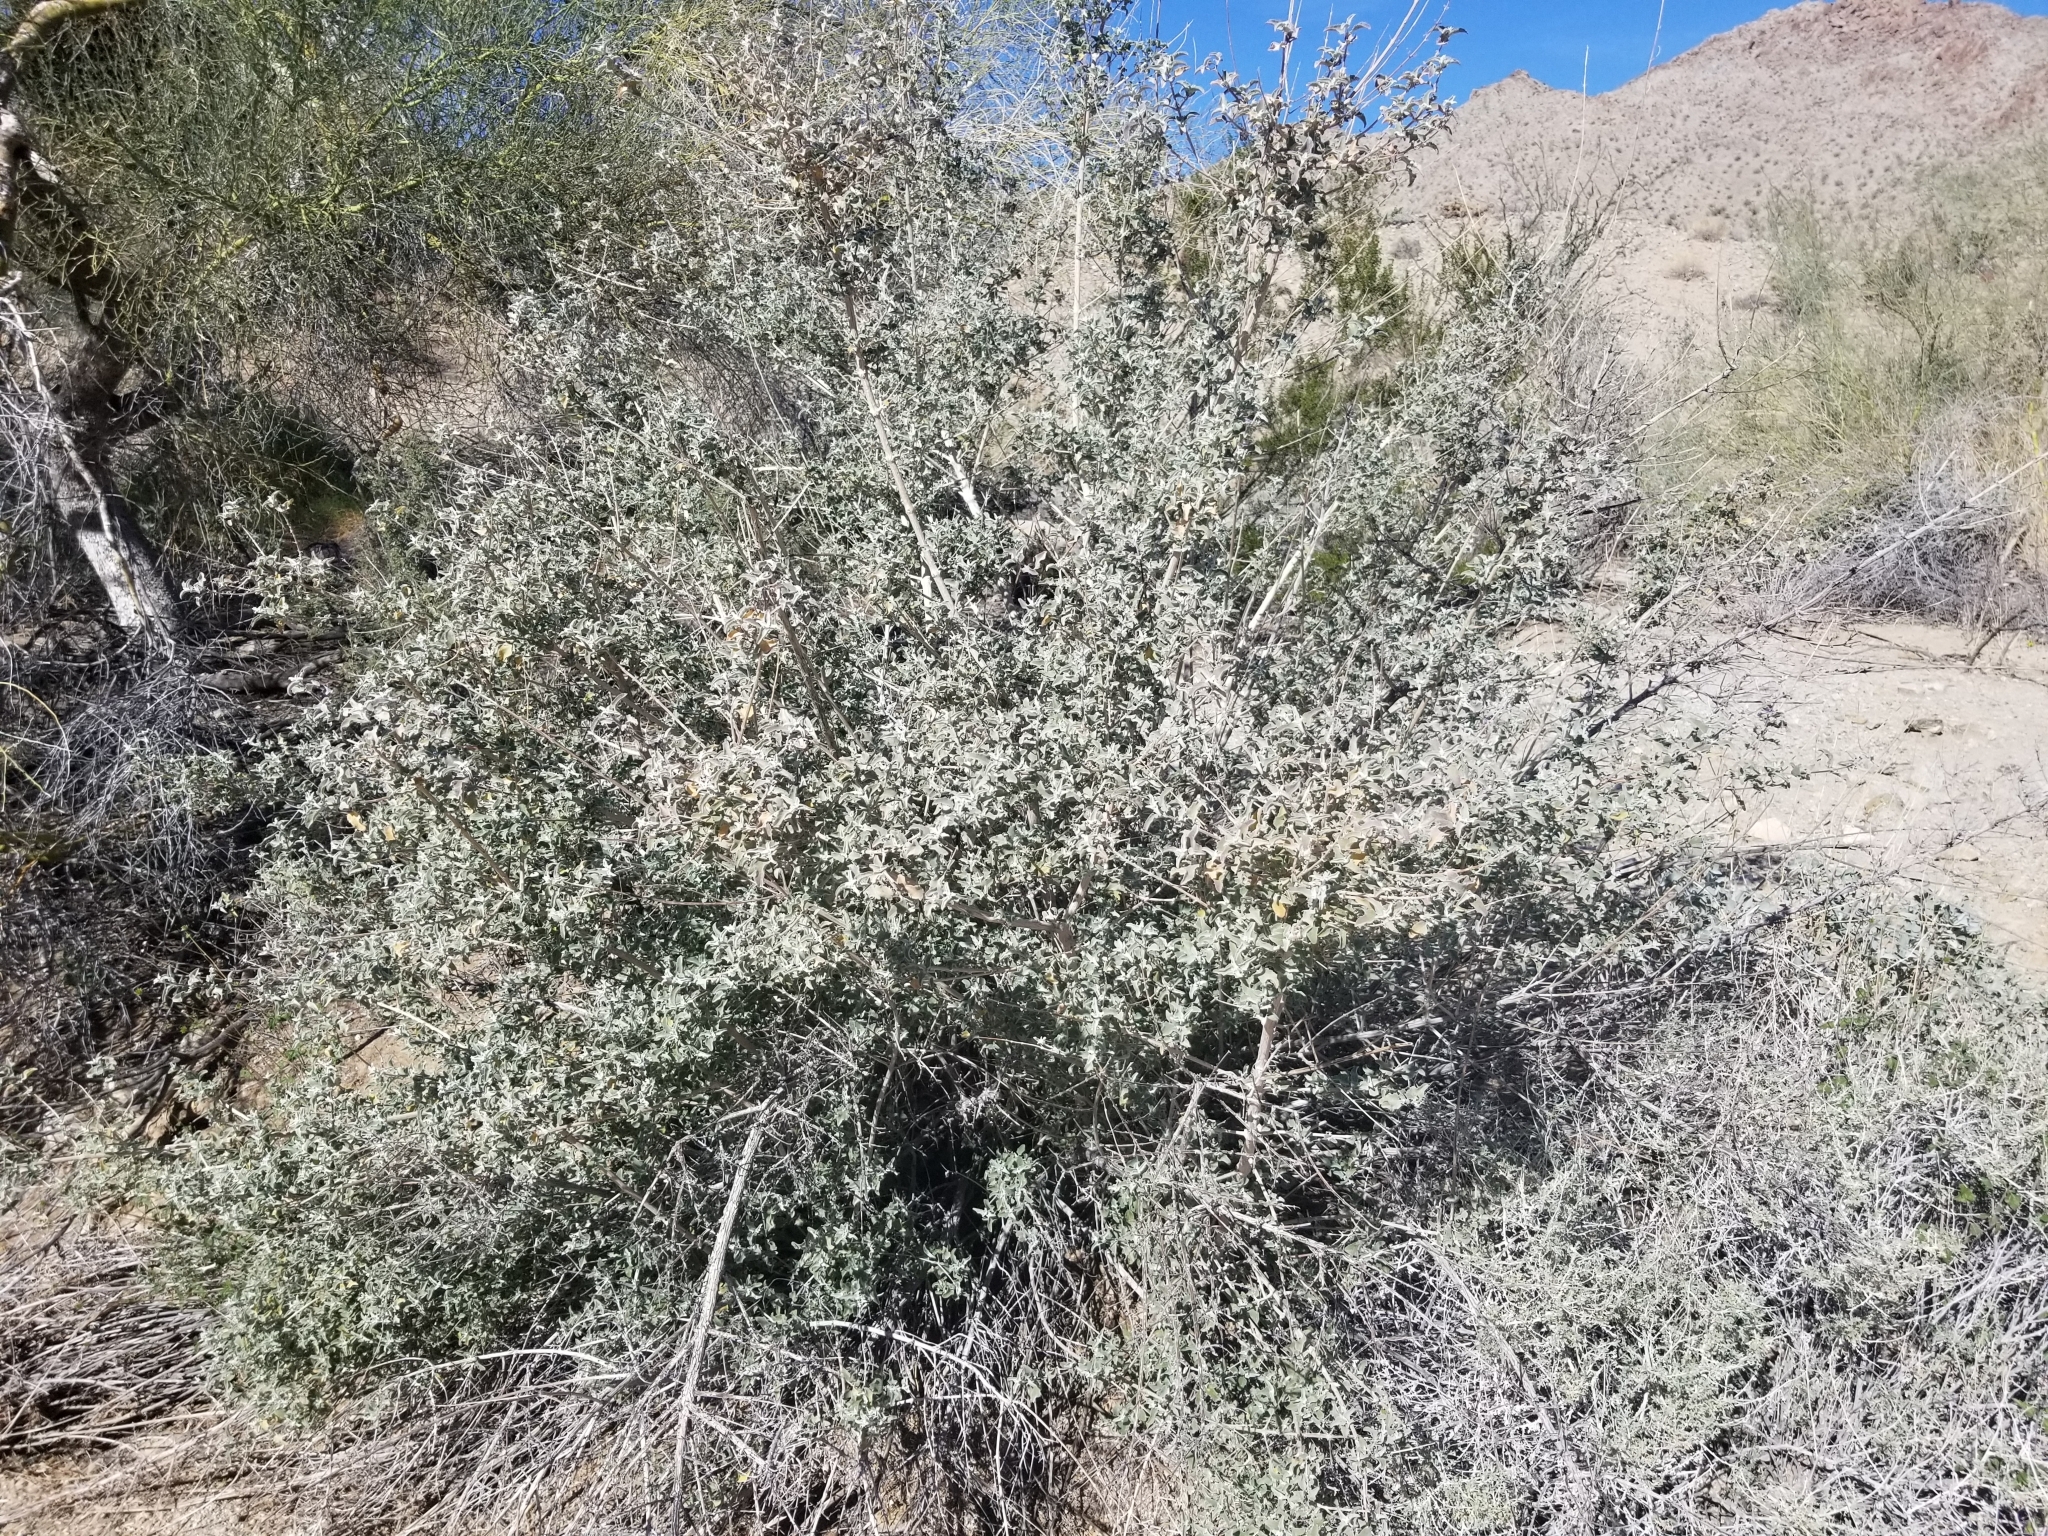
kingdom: Plantae
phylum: Tracheophyta
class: Magnoliopsida
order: Lamiales
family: Lamiaceae
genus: Condea
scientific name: Condea emoryi
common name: Chia
